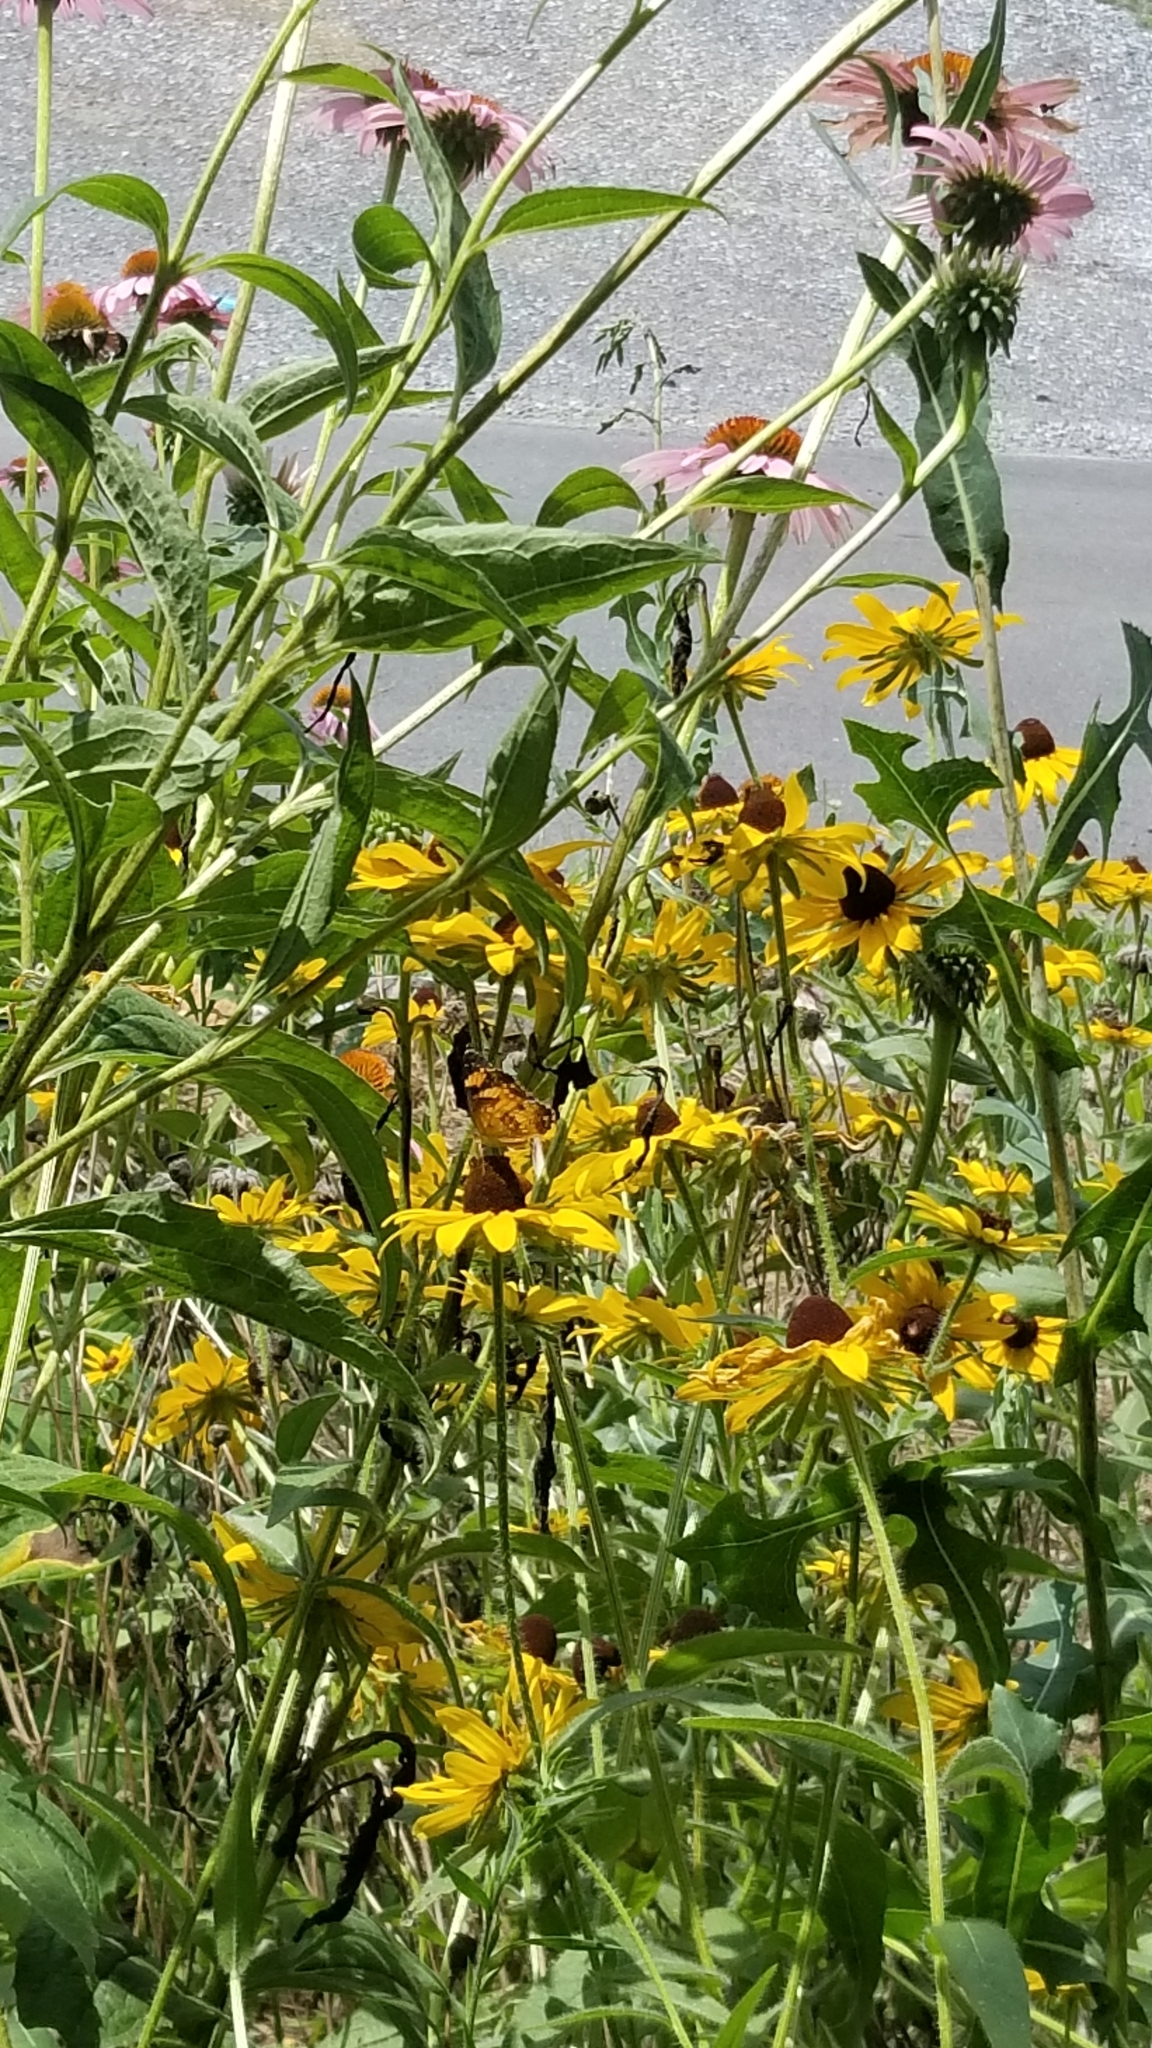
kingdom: Animalia
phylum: Arthropoda
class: Insecta
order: Lepidoptera
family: Nymphalidae
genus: Chlosyne
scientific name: Chlosyne nycteis
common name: Silvery checkerspot
